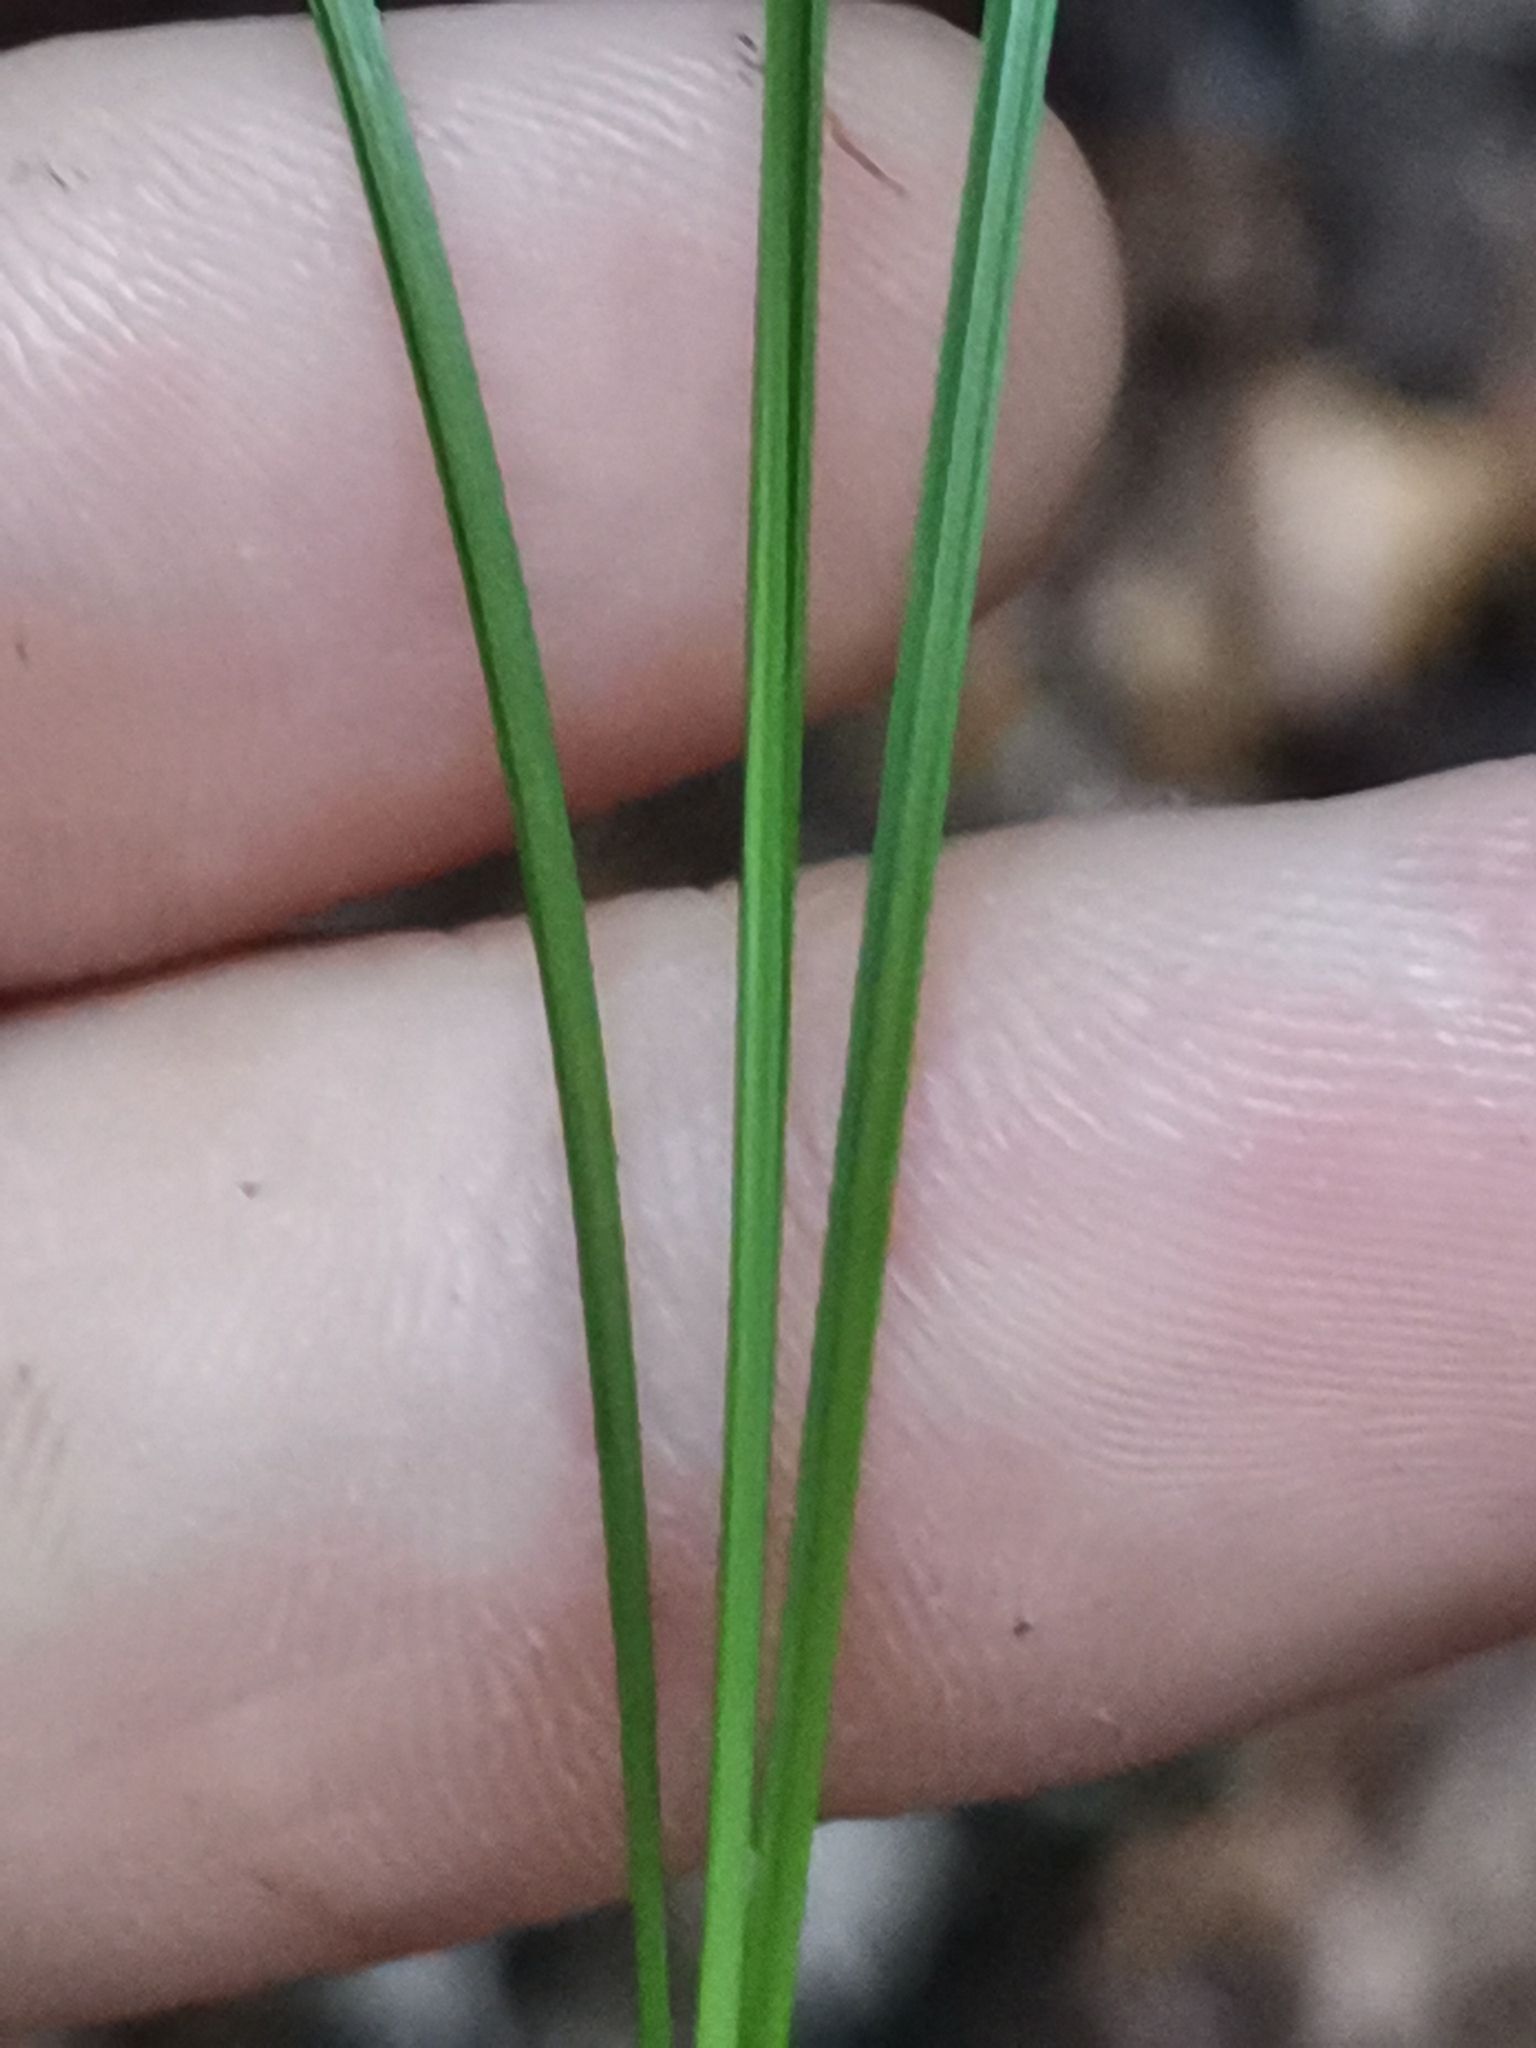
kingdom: Plantae
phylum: Tracheophyta
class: Liliopsida
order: Poales
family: Cyperaceae
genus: Carex
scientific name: Carex brachystachys
